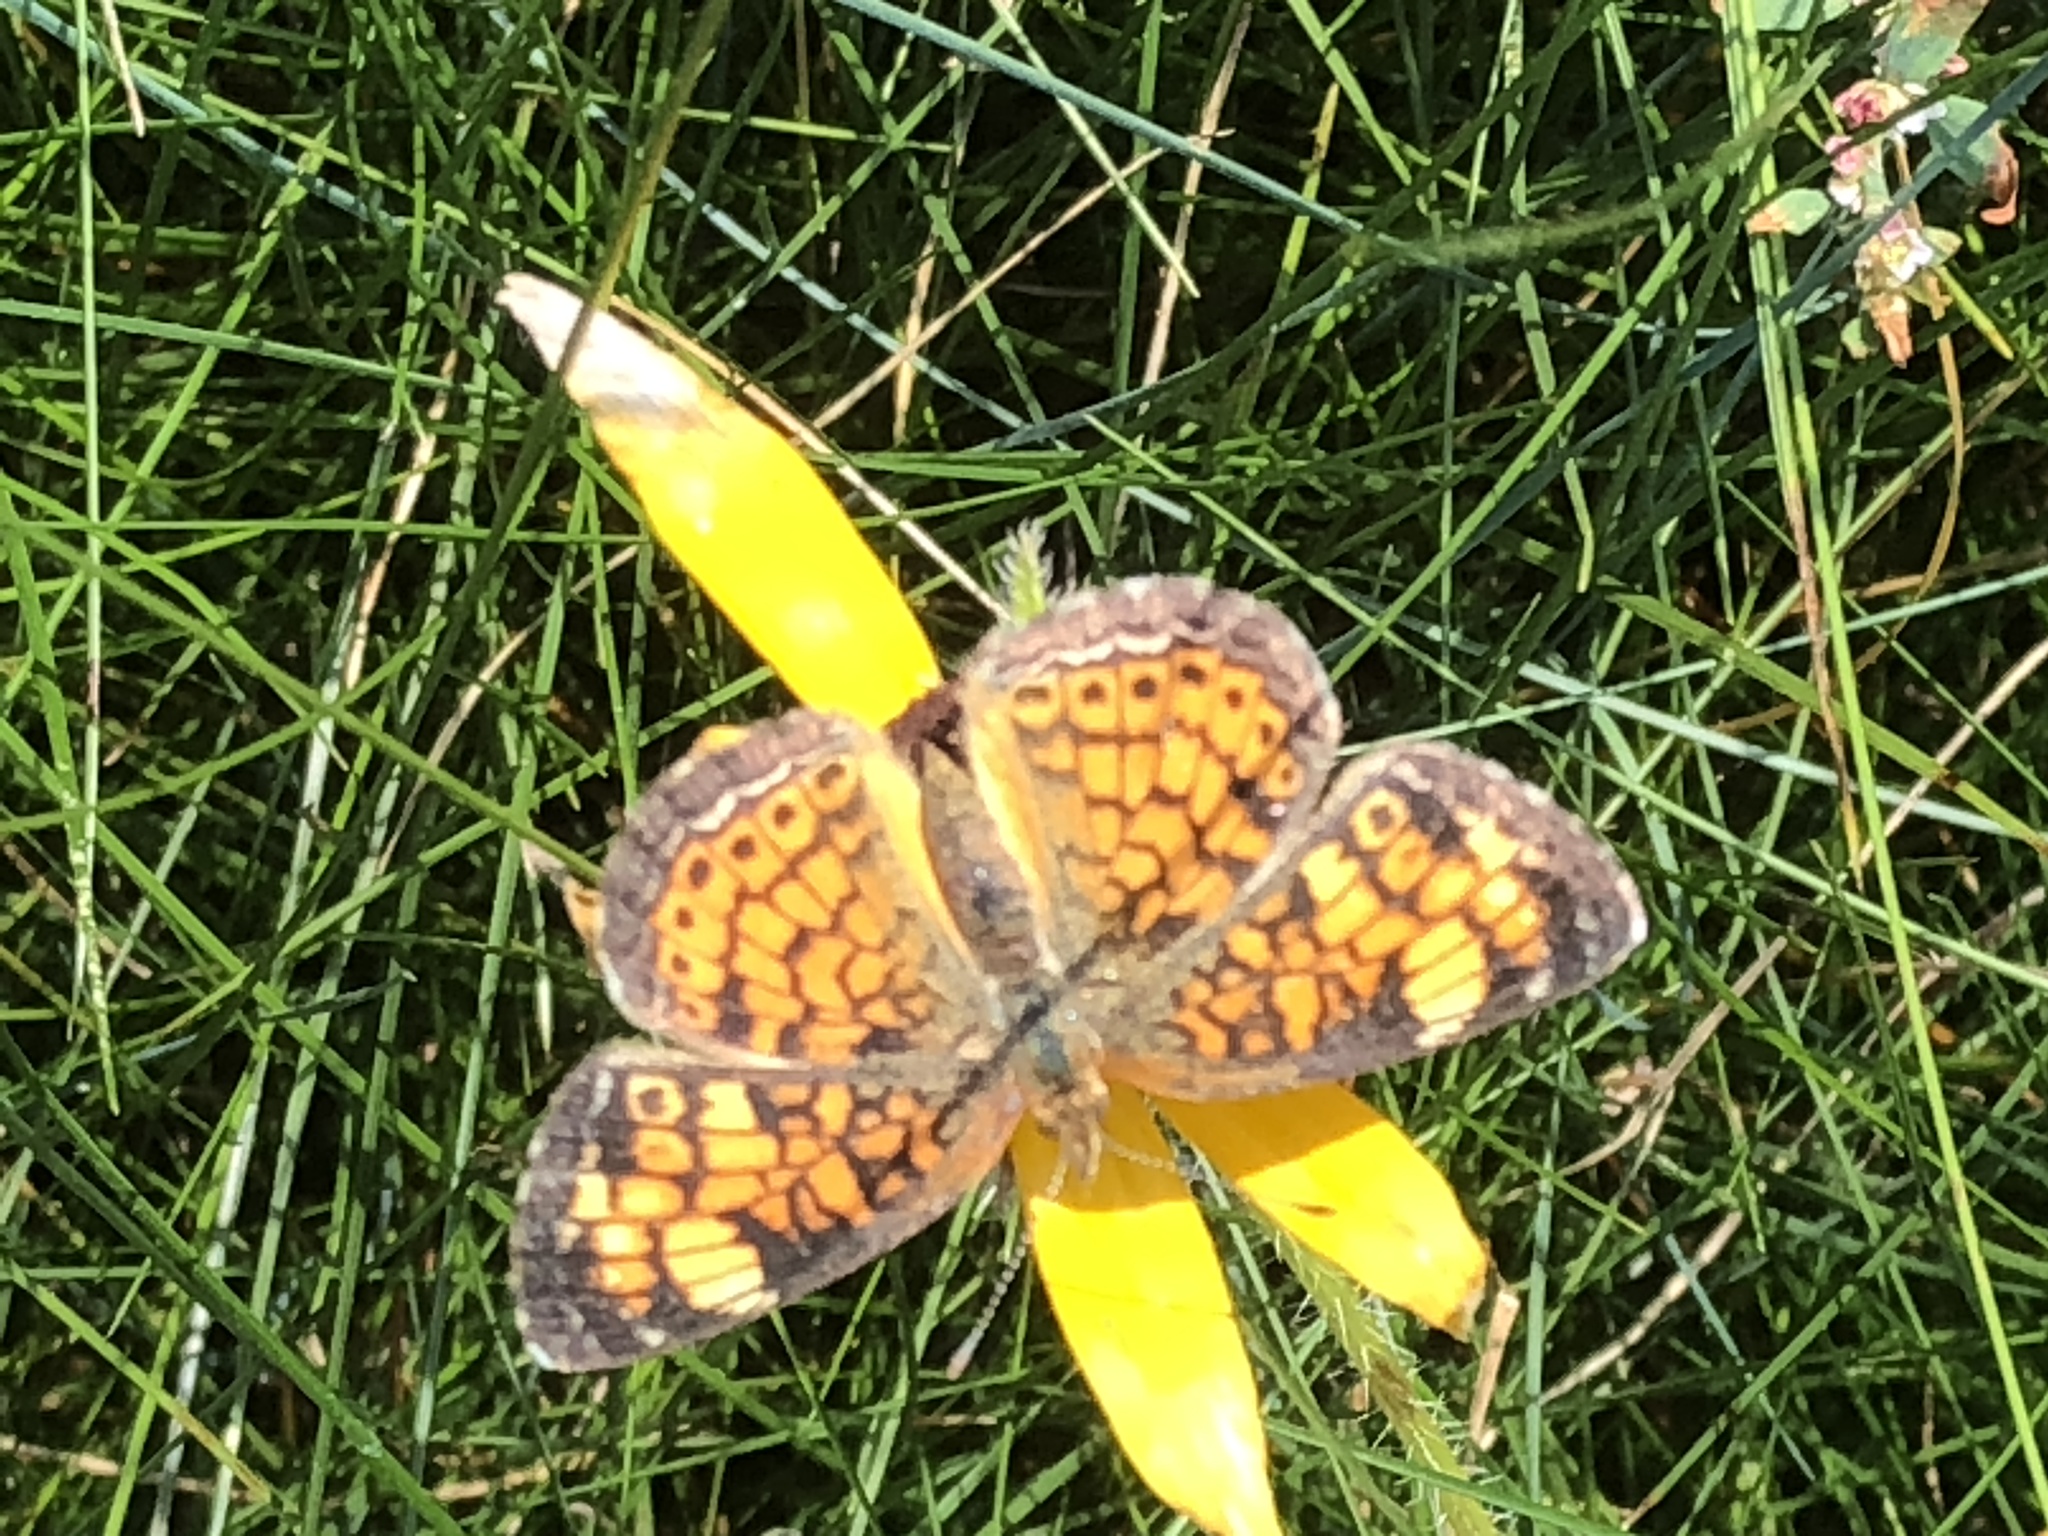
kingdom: Animalia
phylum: Arthropoda
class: Insecta
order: Lepidoptera
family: Nymphalidae
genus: Phyciodes
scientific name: Phyciodes tharos
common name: Pearl crescent
